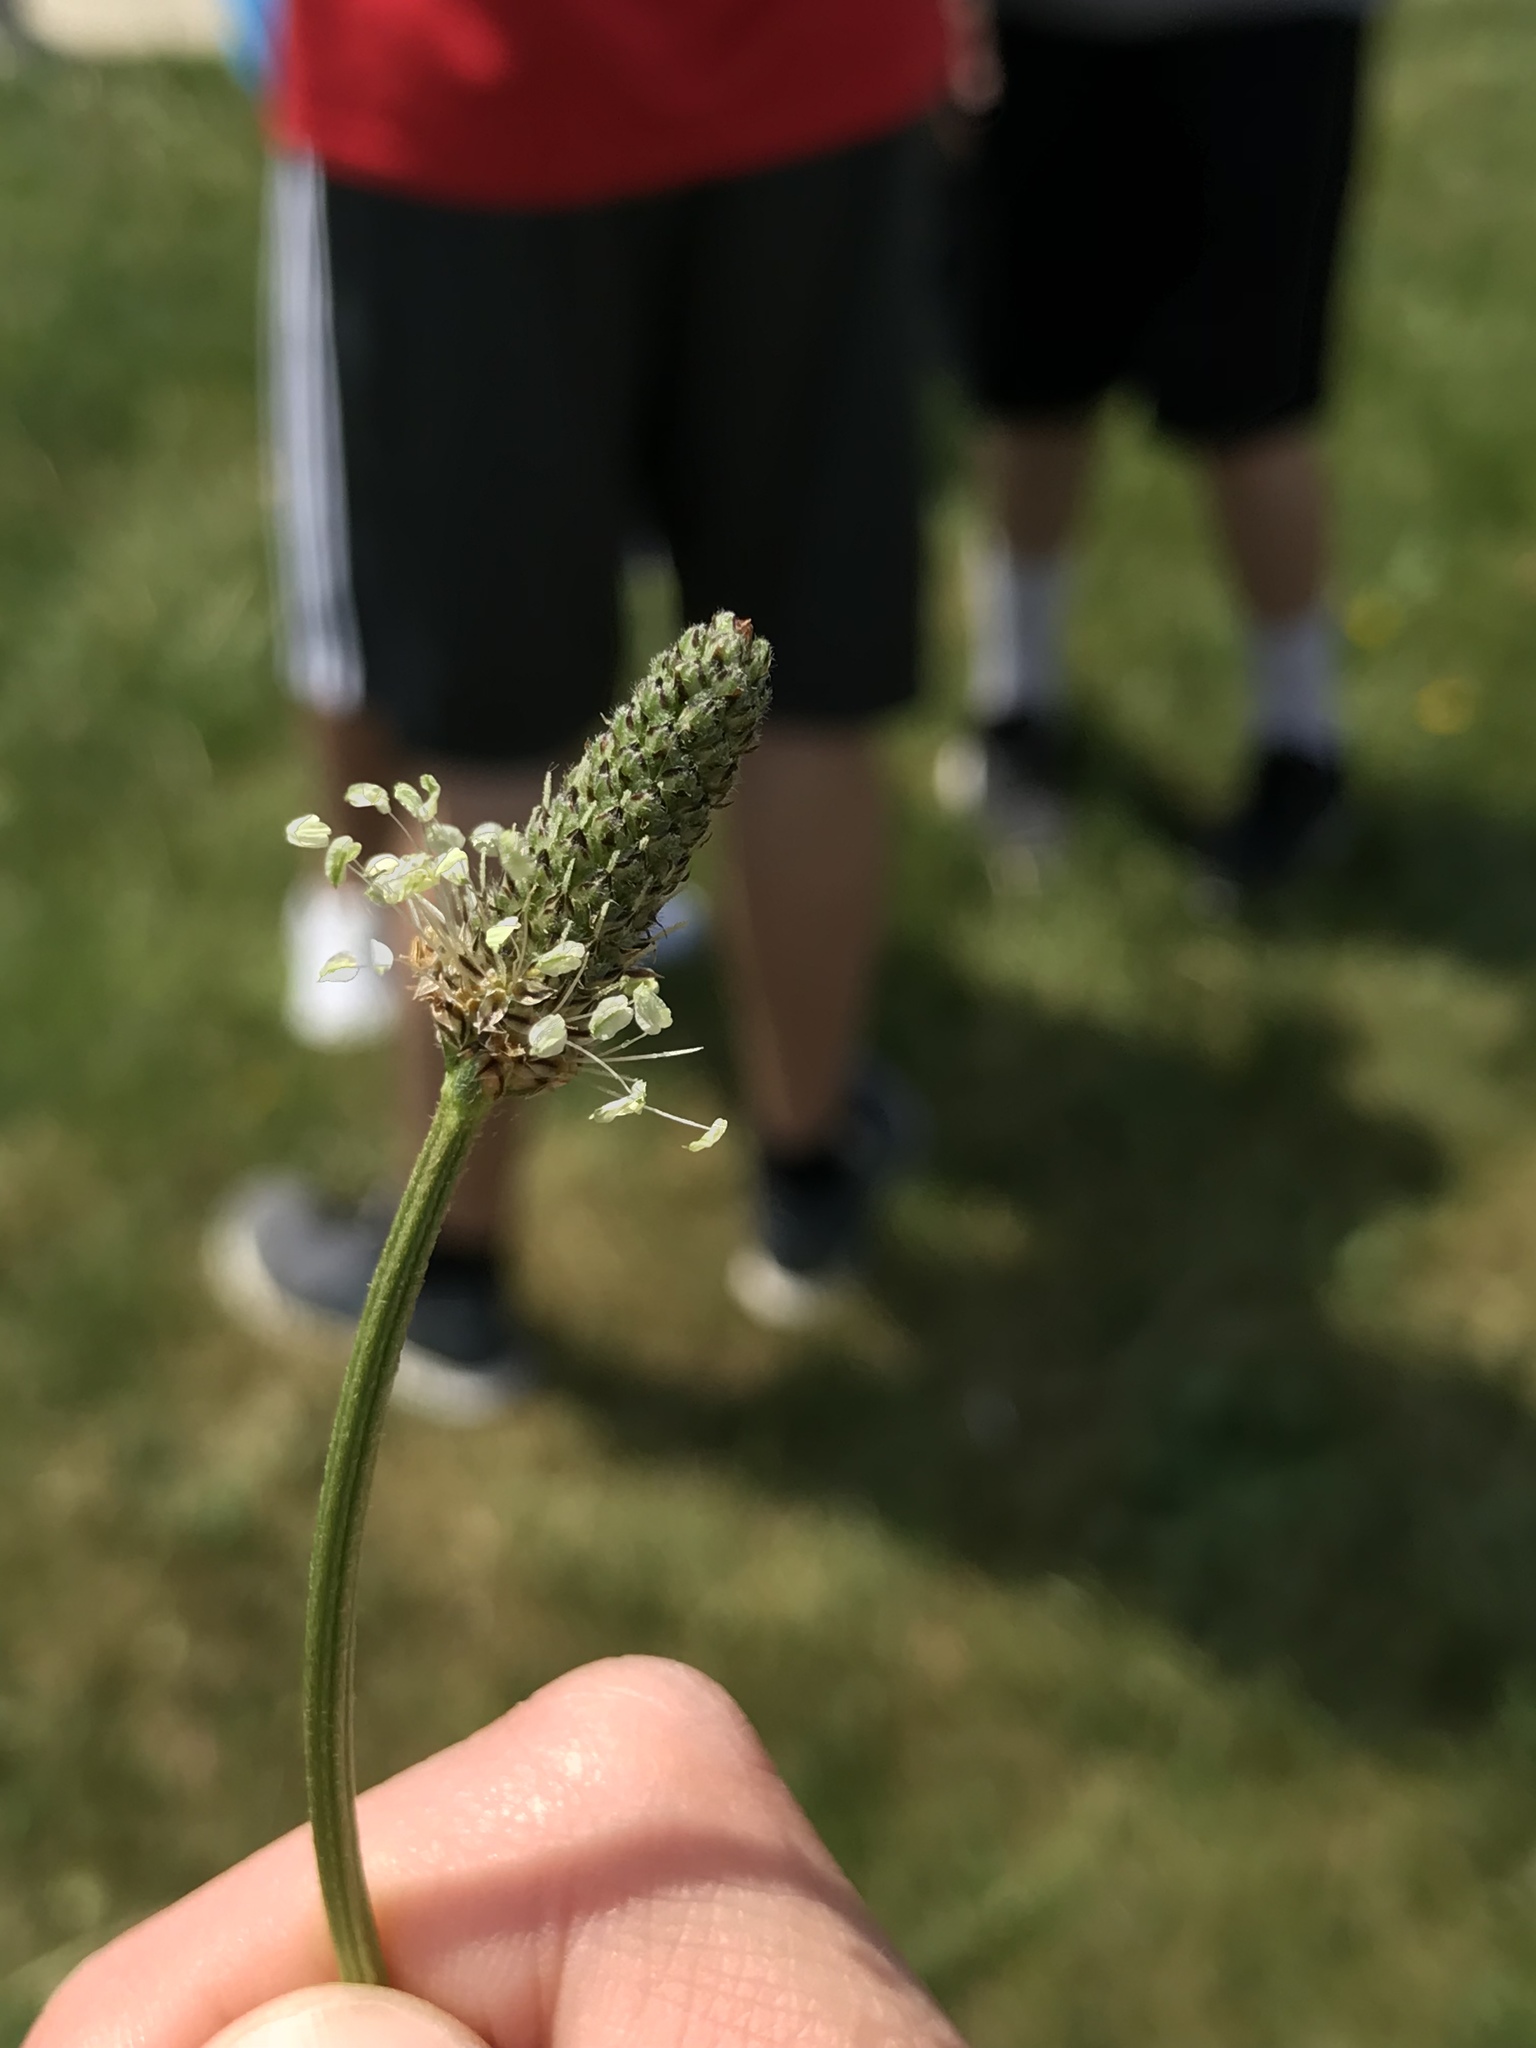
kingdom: Plantae
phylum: Tracheophyta
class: Magnoliopsida
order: Lamiales
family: Plantaginaceae
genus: Plantago
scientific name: Plantago lanceolata
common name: Ribwort plantain
